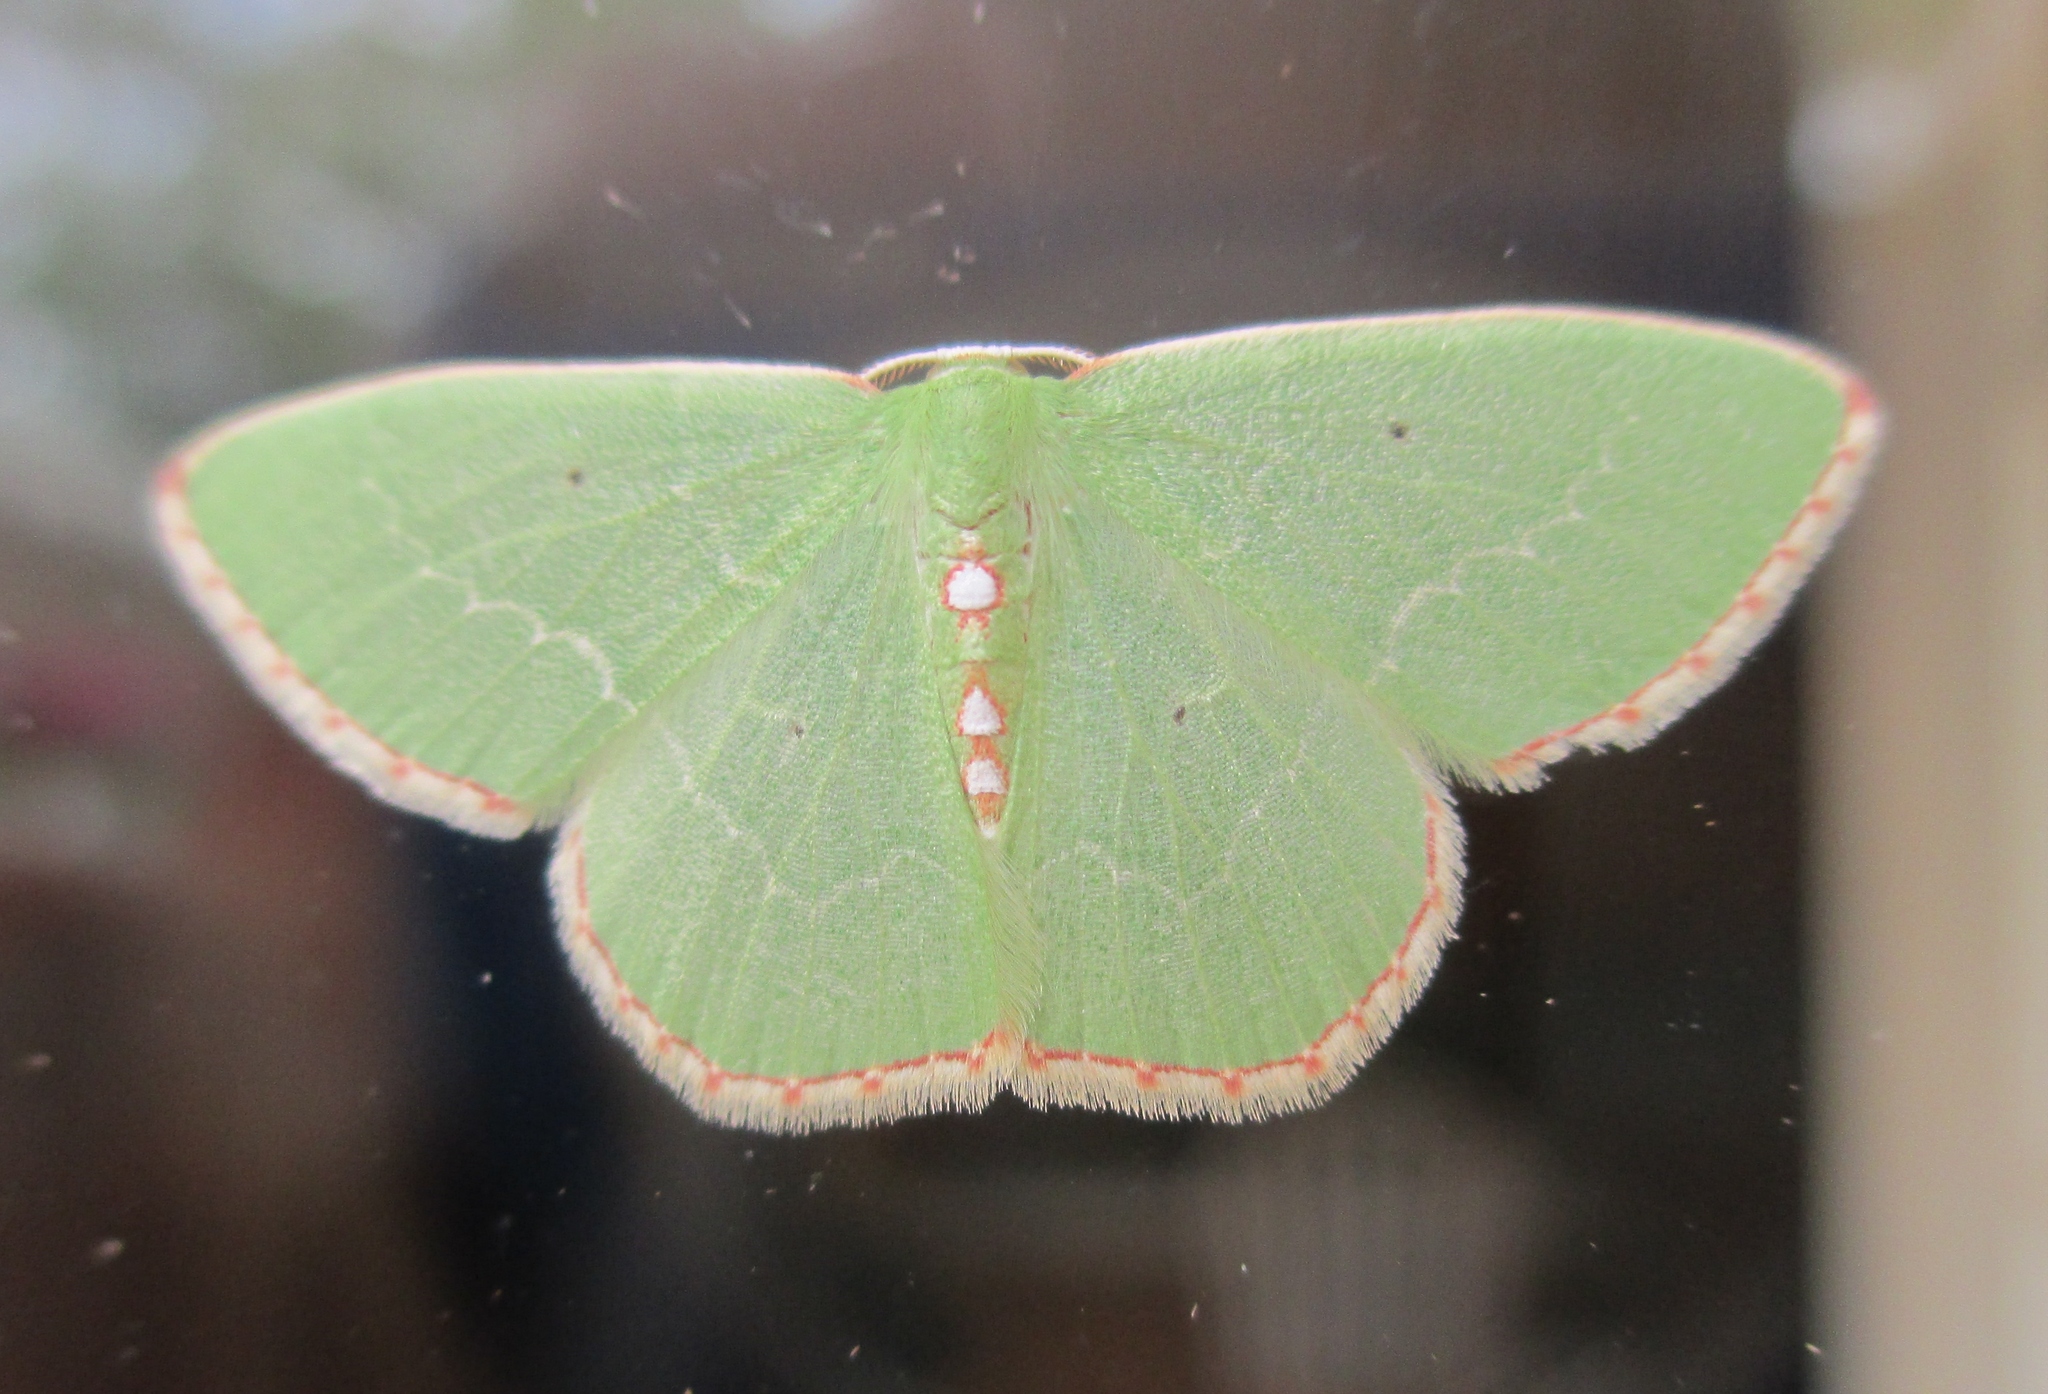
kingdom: Animalia
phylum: Arthropoda
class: Insecta
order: Lepidoptera
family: Geometridae
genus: Nemoria
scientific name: Nemoria lixaria
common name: Red-bordered emerald
